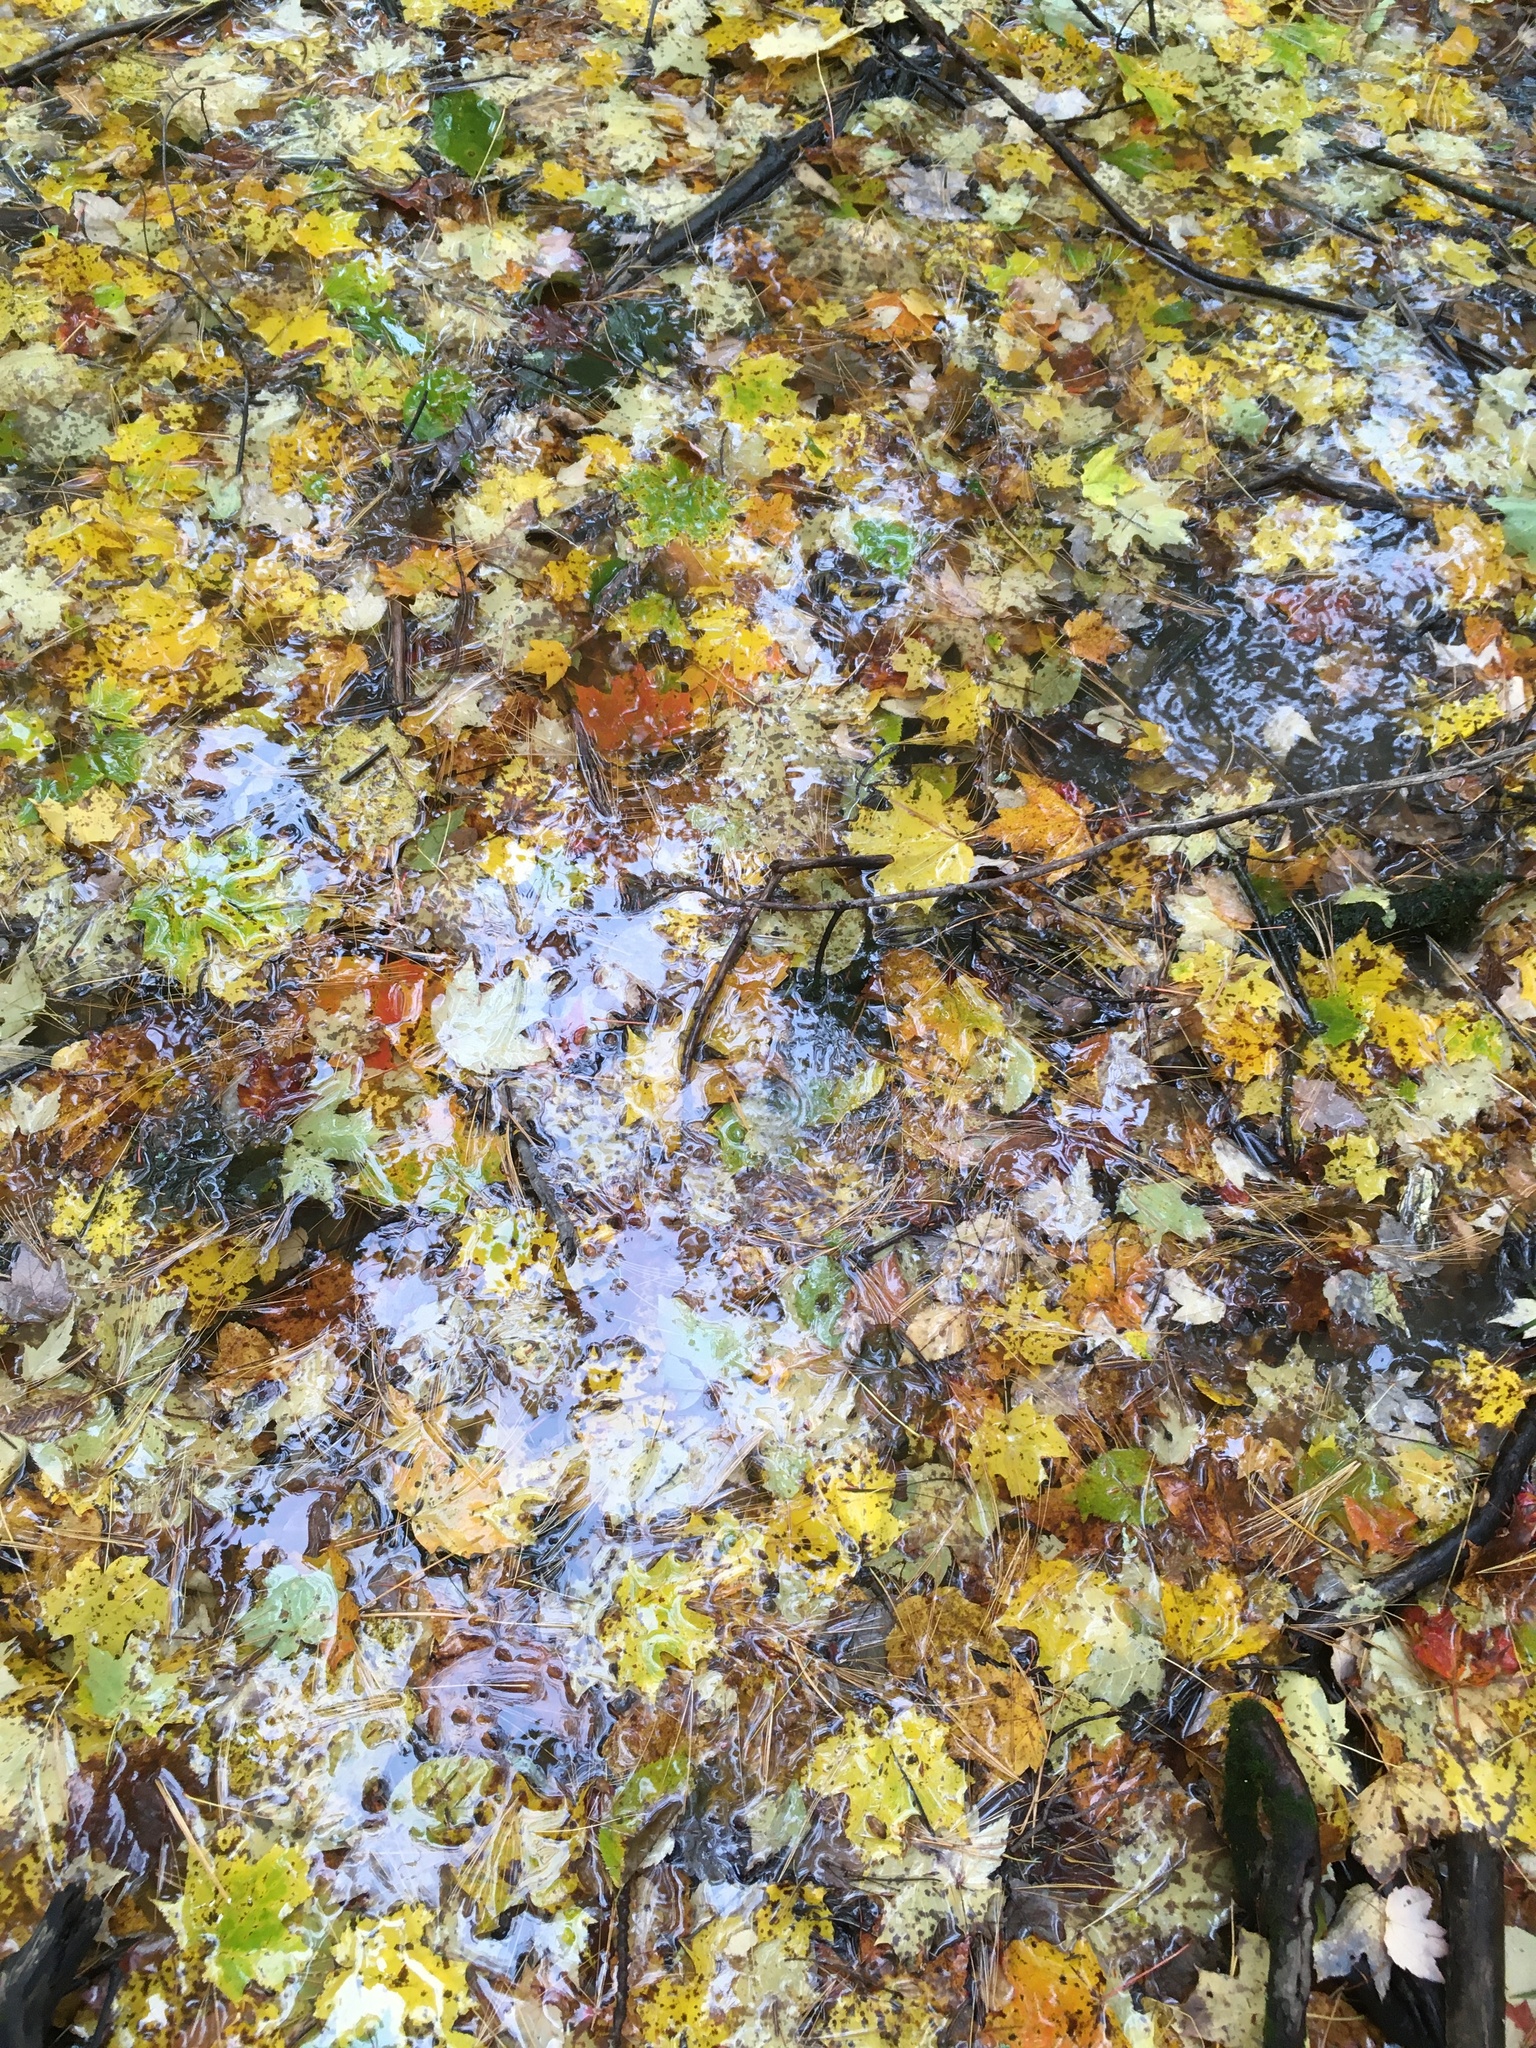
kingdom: Plantae
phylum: Tracheophyta
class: Magnoliopsida
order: Sapindales
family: Sapindaceae
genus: Acer
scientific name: Acer saccharum
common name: Sugar maple
